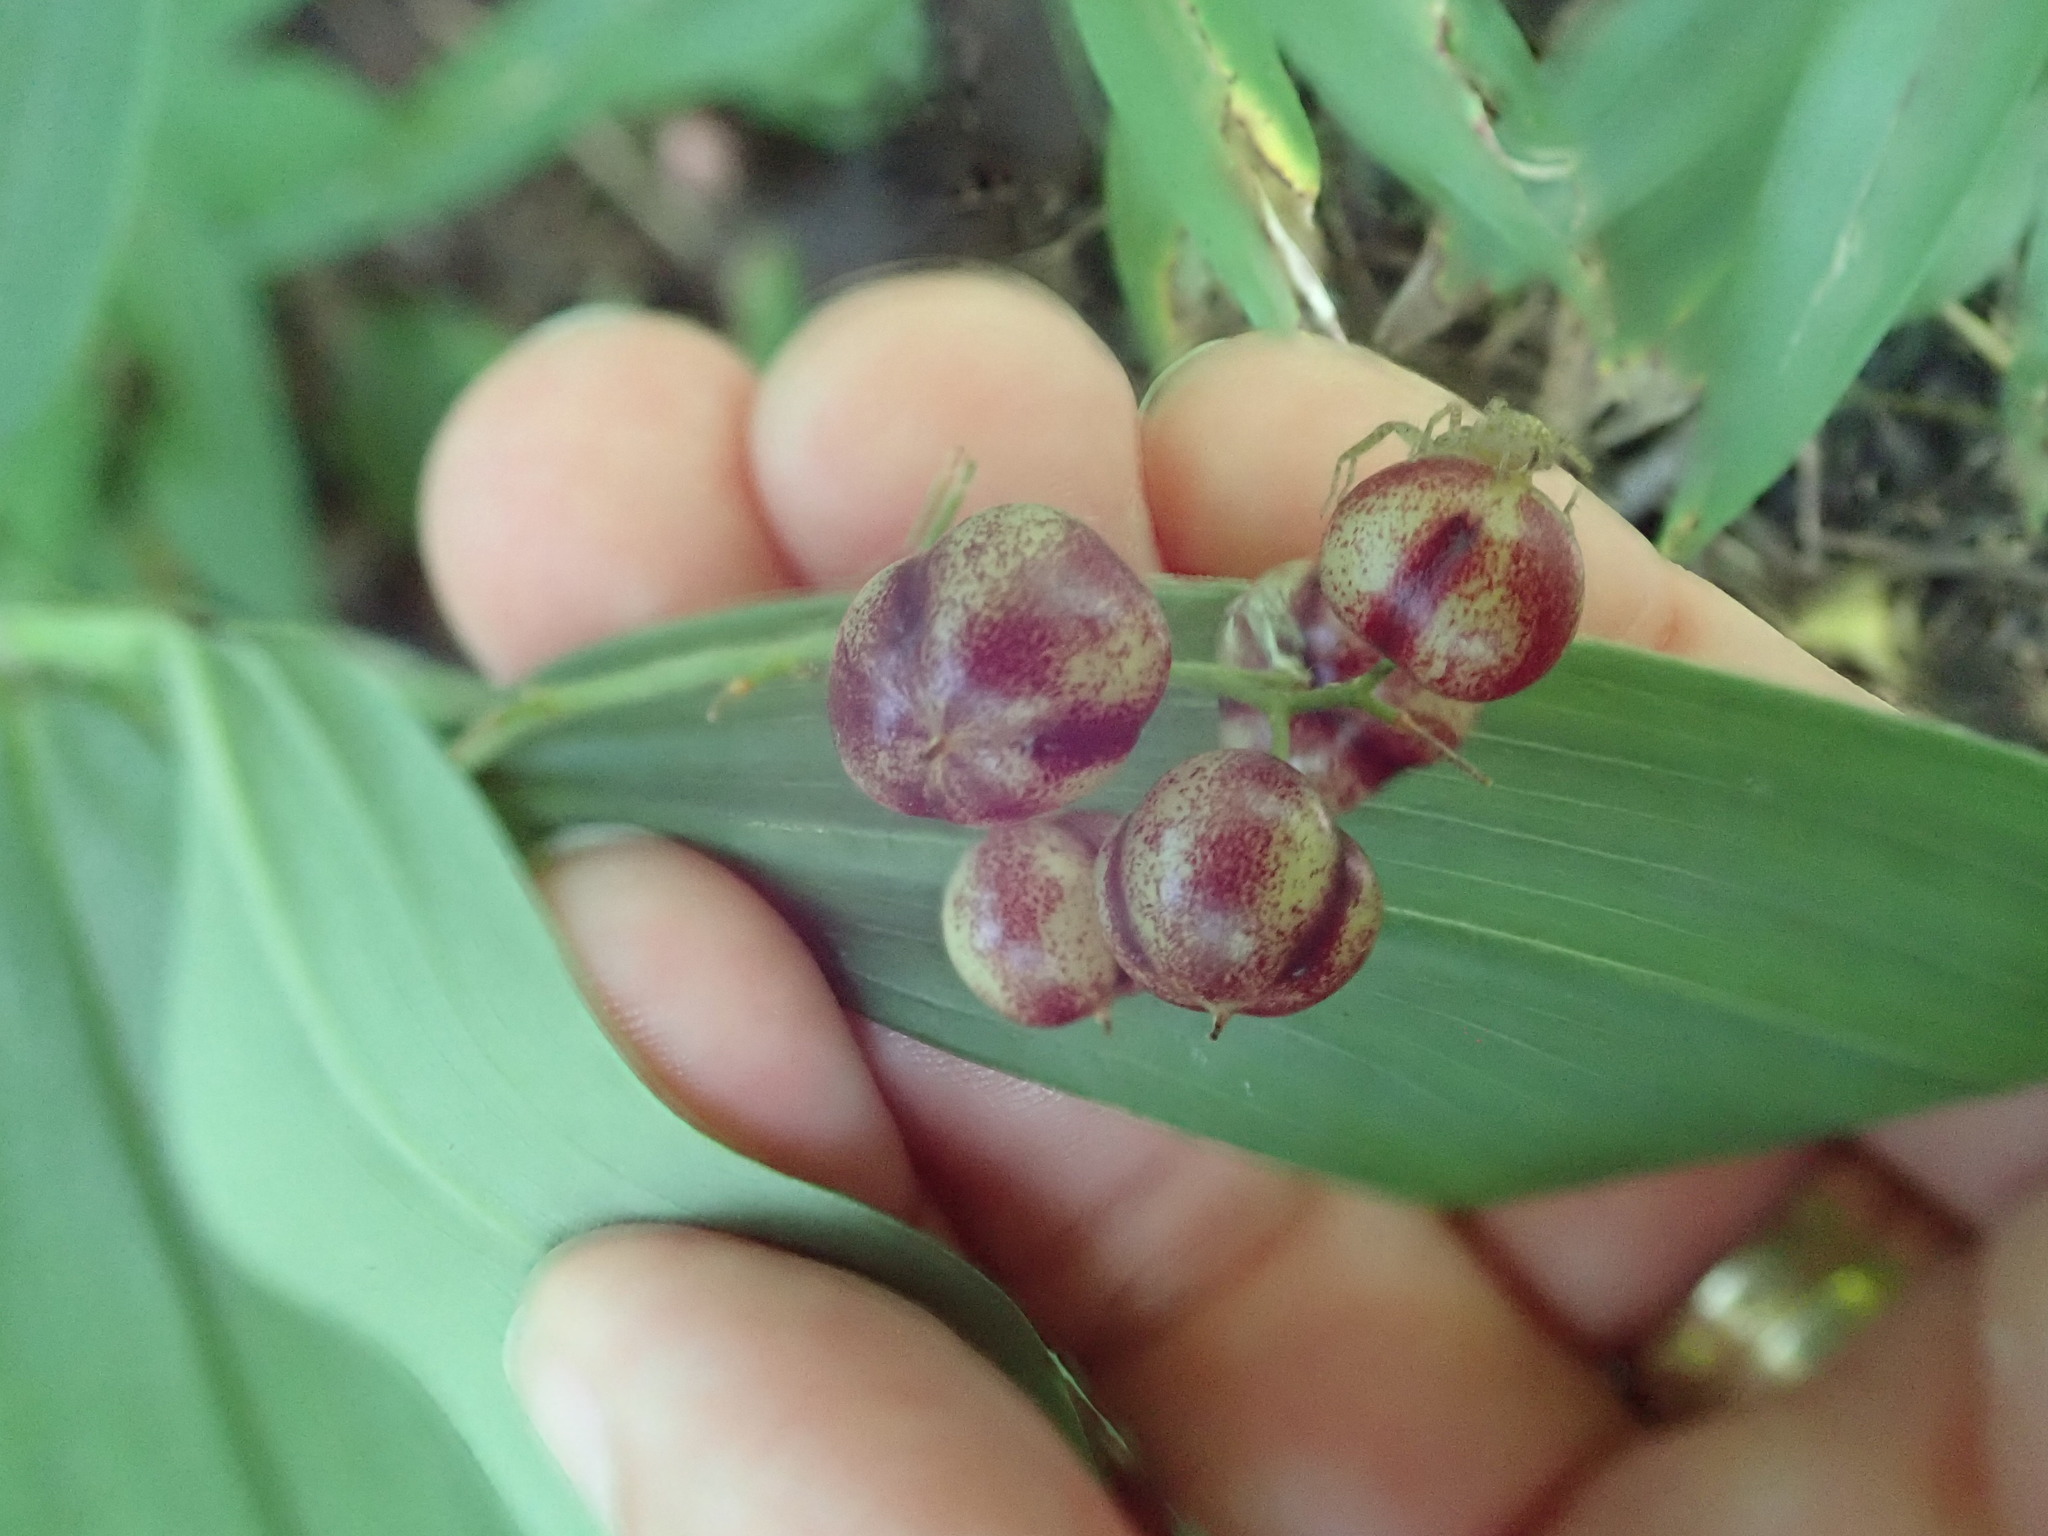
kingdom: Plantae
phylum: Tracheophyta
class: Liliopsida
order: Asparagales
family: Asparagaceae
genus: Maianthemum
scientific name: Maianthemum stellatum
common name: Little false solomon's seal
